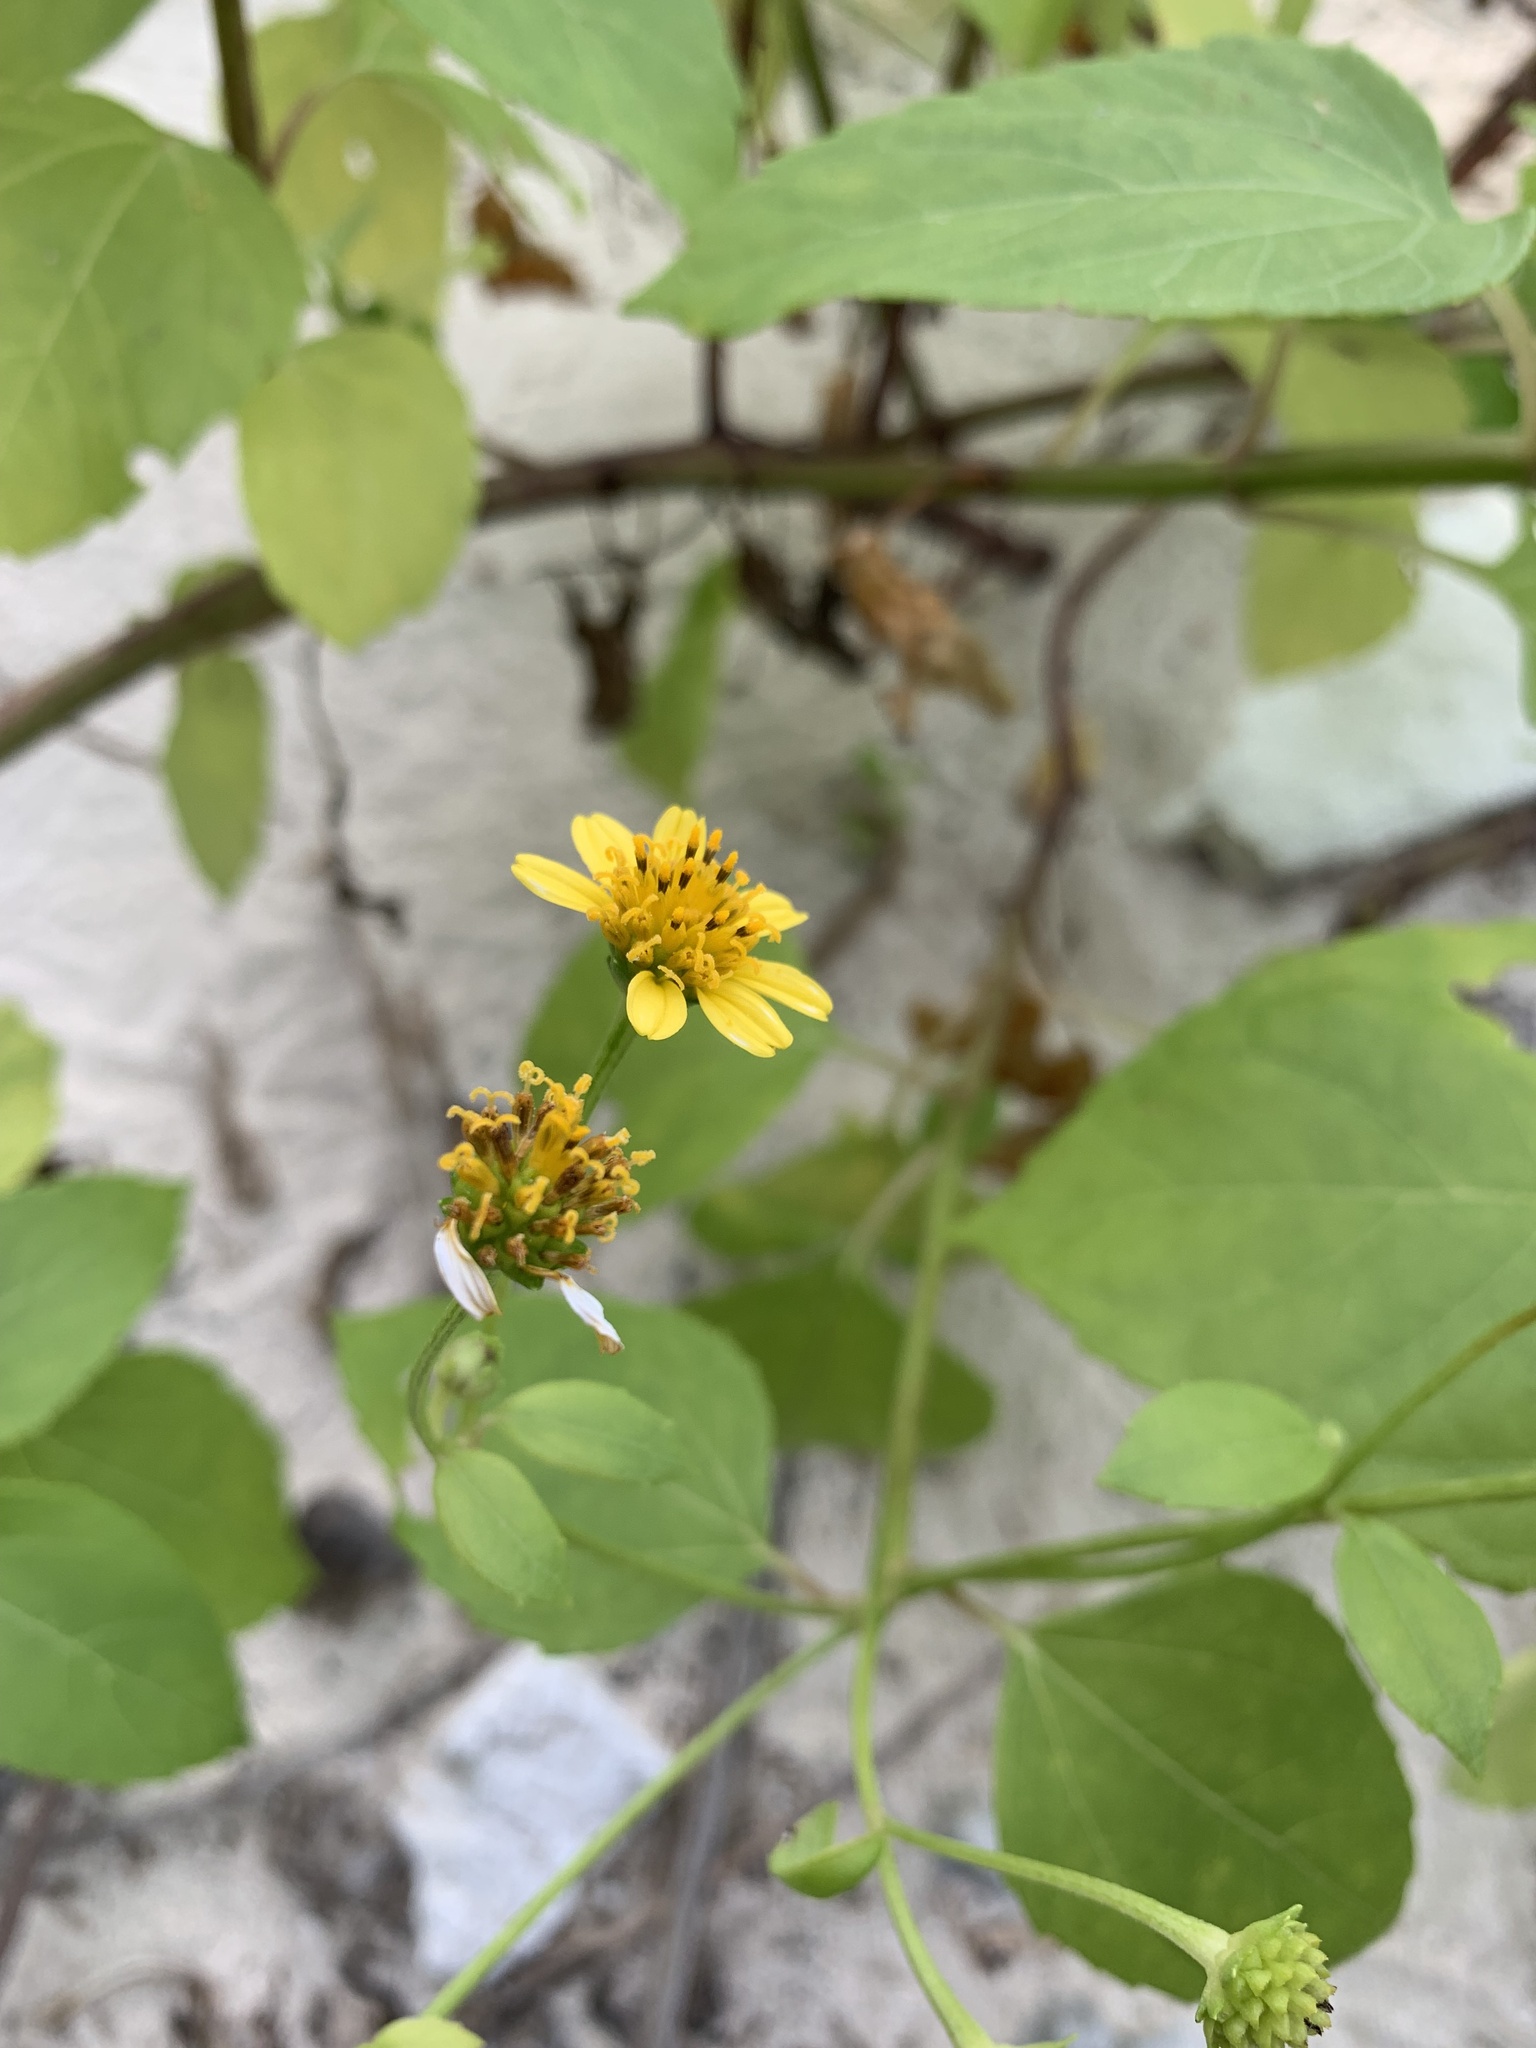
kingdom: Plantae
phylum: Tracheophyta
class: Magnoliopsida
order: Asterales
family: Asteraceae
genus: Wollastonia
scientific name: Wollastonia biflora
